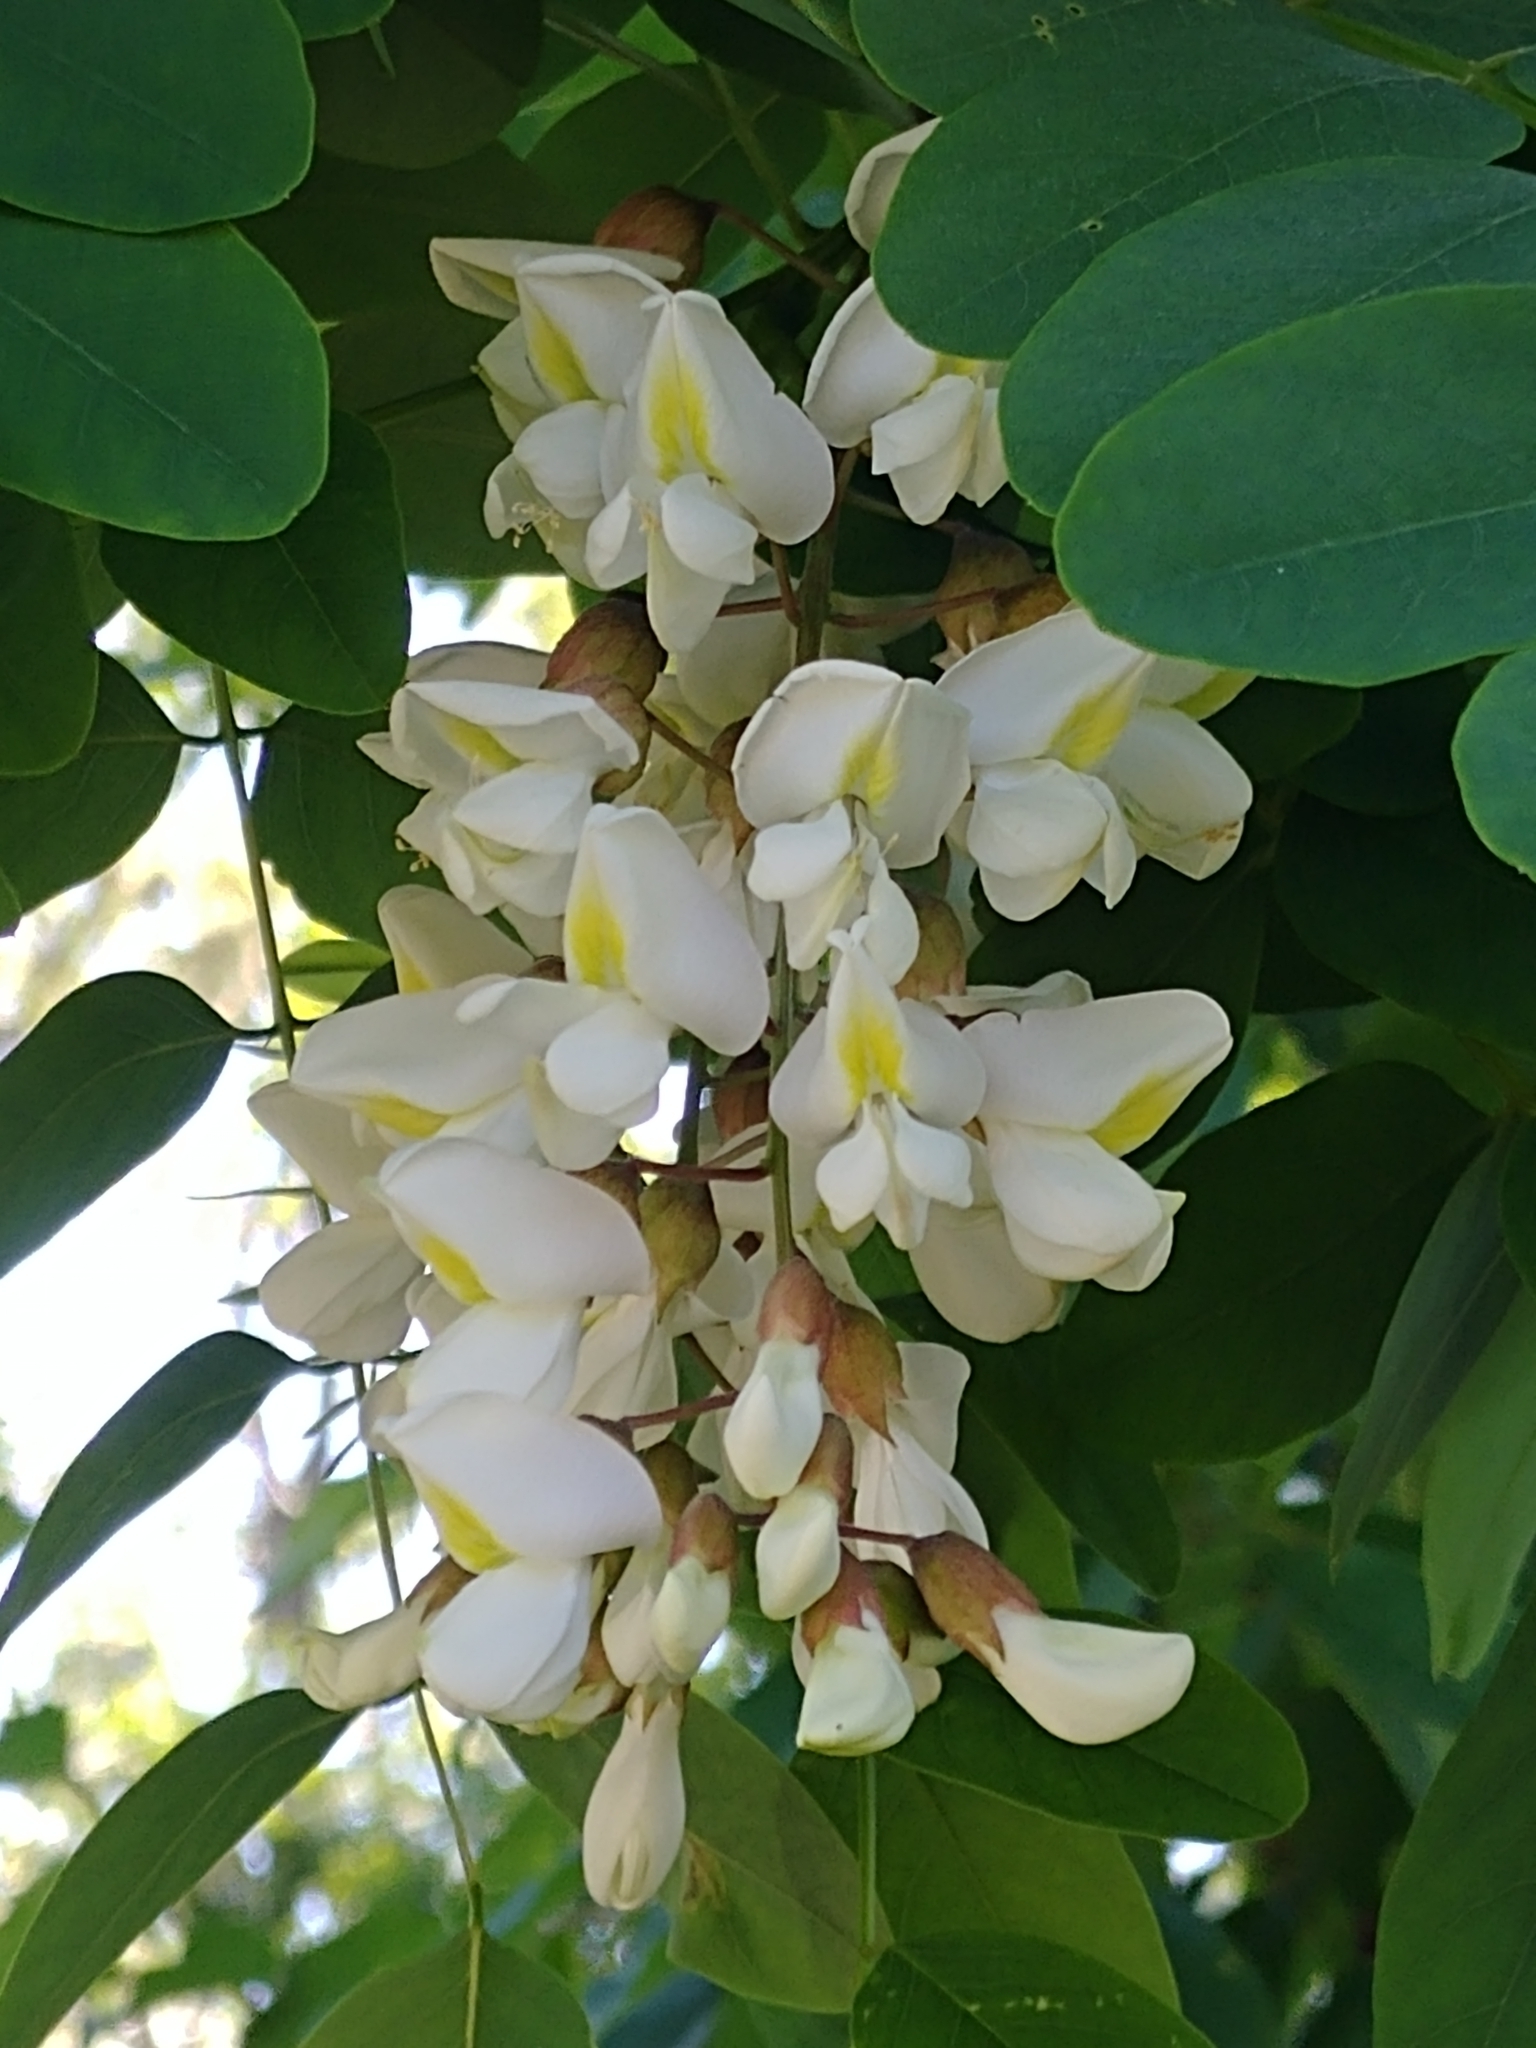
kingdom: Plantae
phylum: Tracheophyta
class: Magnoliopsida
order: Fabales
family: Fabaceae
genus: Robinia
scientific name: Robinia pseudoacacia
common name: Black locust
